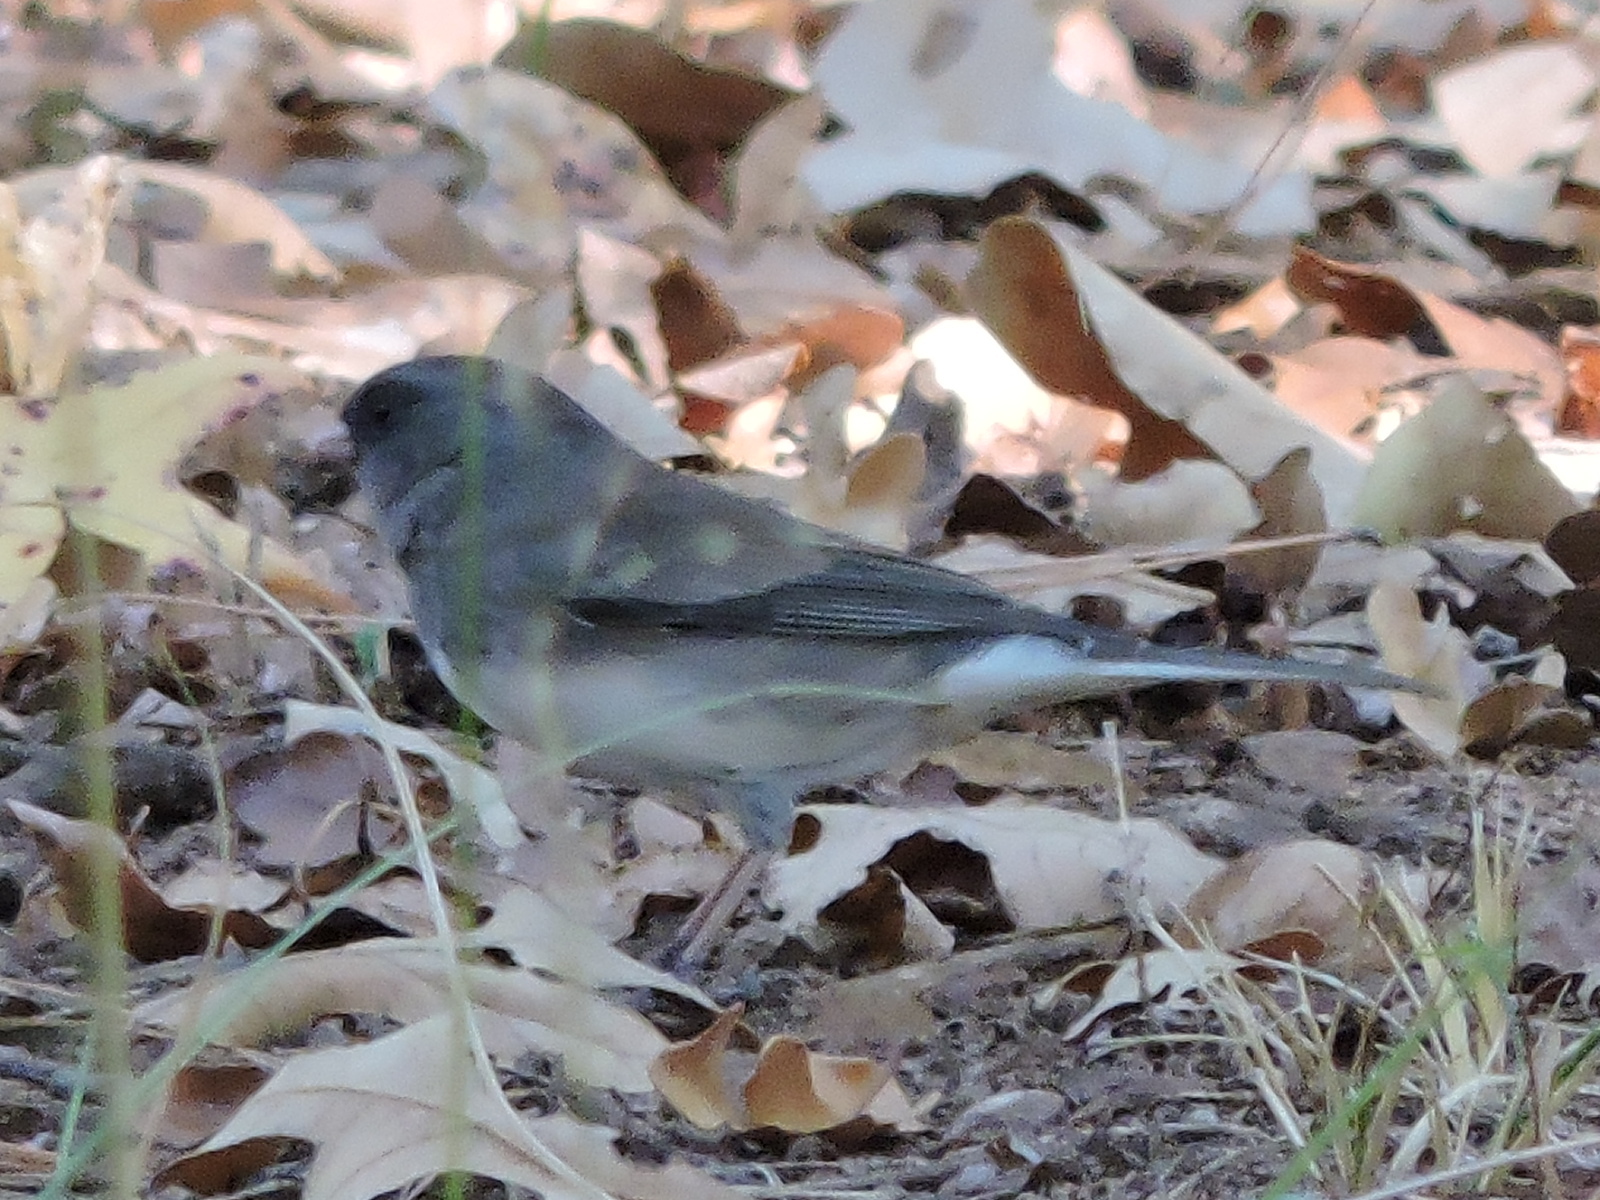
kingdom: Animalia
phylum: Chordata
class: Aves
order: Passeriformes
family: Passerellidae
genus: Junco
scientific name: Junco hyemalis
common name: Dark-eyed junco
